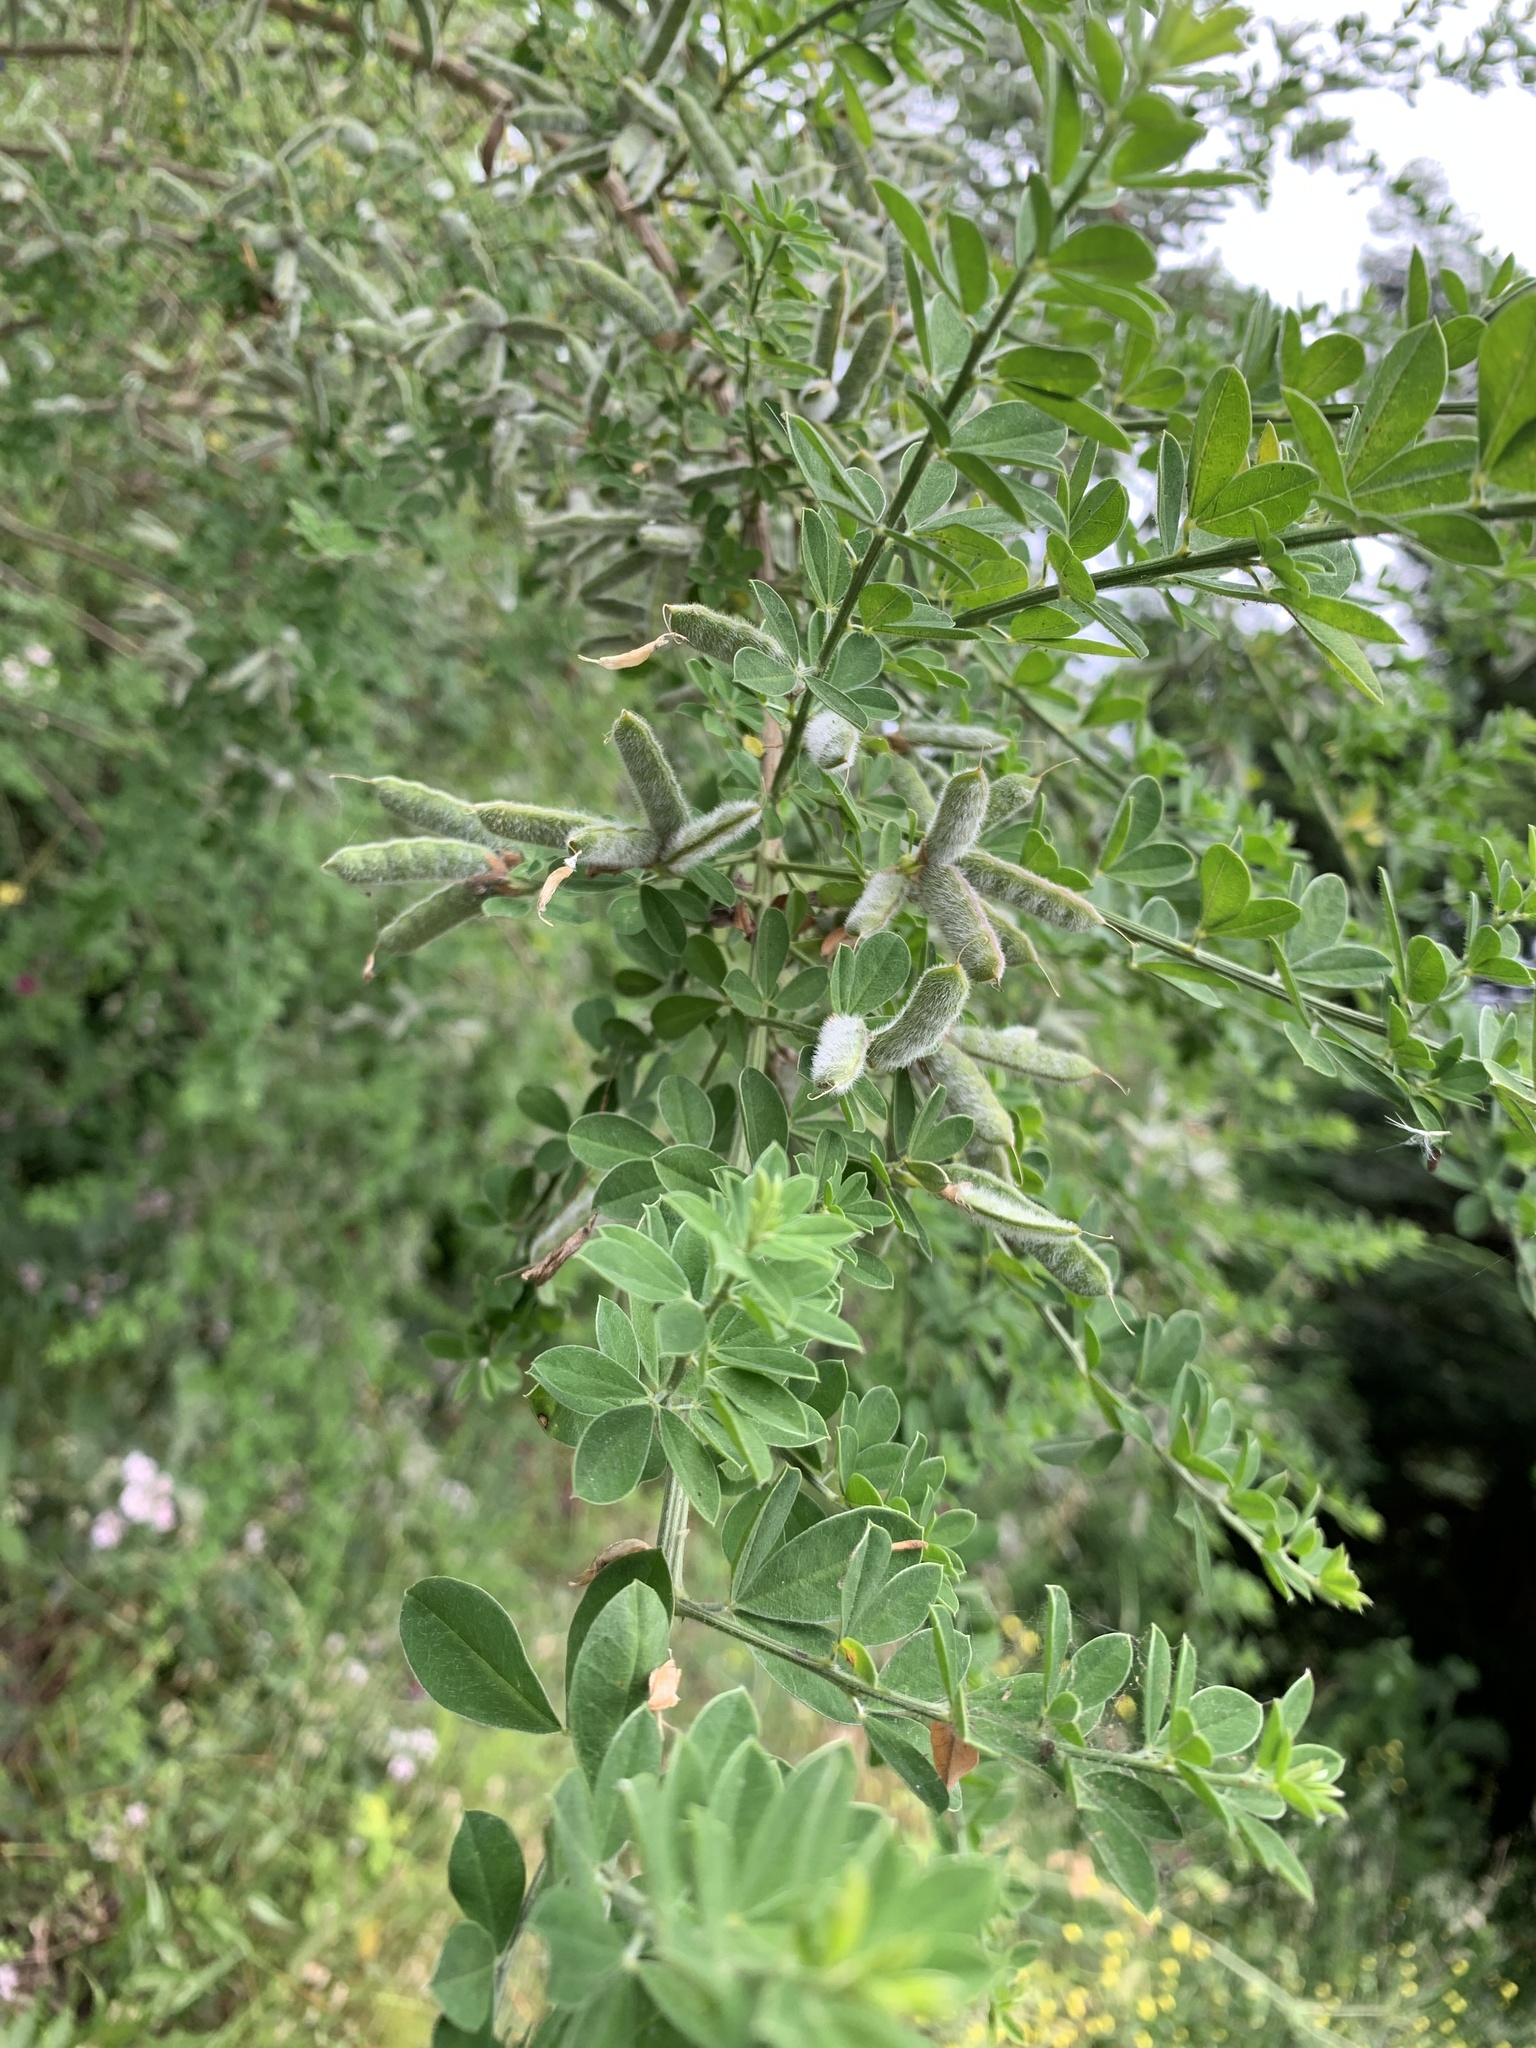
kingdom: Plantae
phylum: Tracheophyta
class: Magnoliopsida
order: Fabales
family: Fabaceae
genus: Genista
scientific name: Genista monspessulana
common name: Montpellier broom
